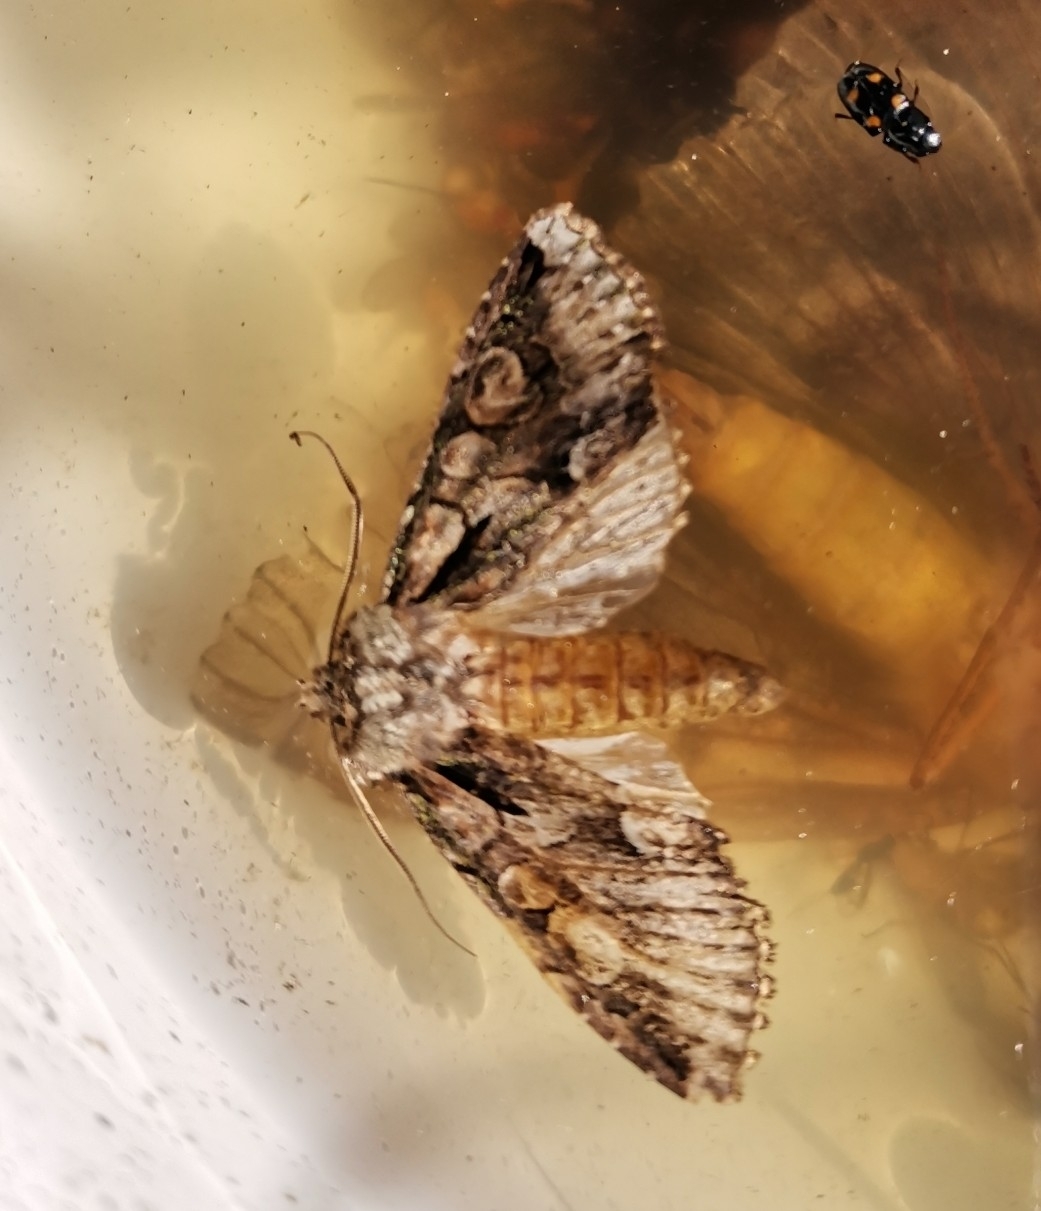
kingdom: Animalia
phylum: Arthropoda
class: Insecta
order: Lepidoptera
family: Noctuidae
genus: Allophyes
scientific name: Allophyes oxyacanthae
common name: Green-brindled crescent
